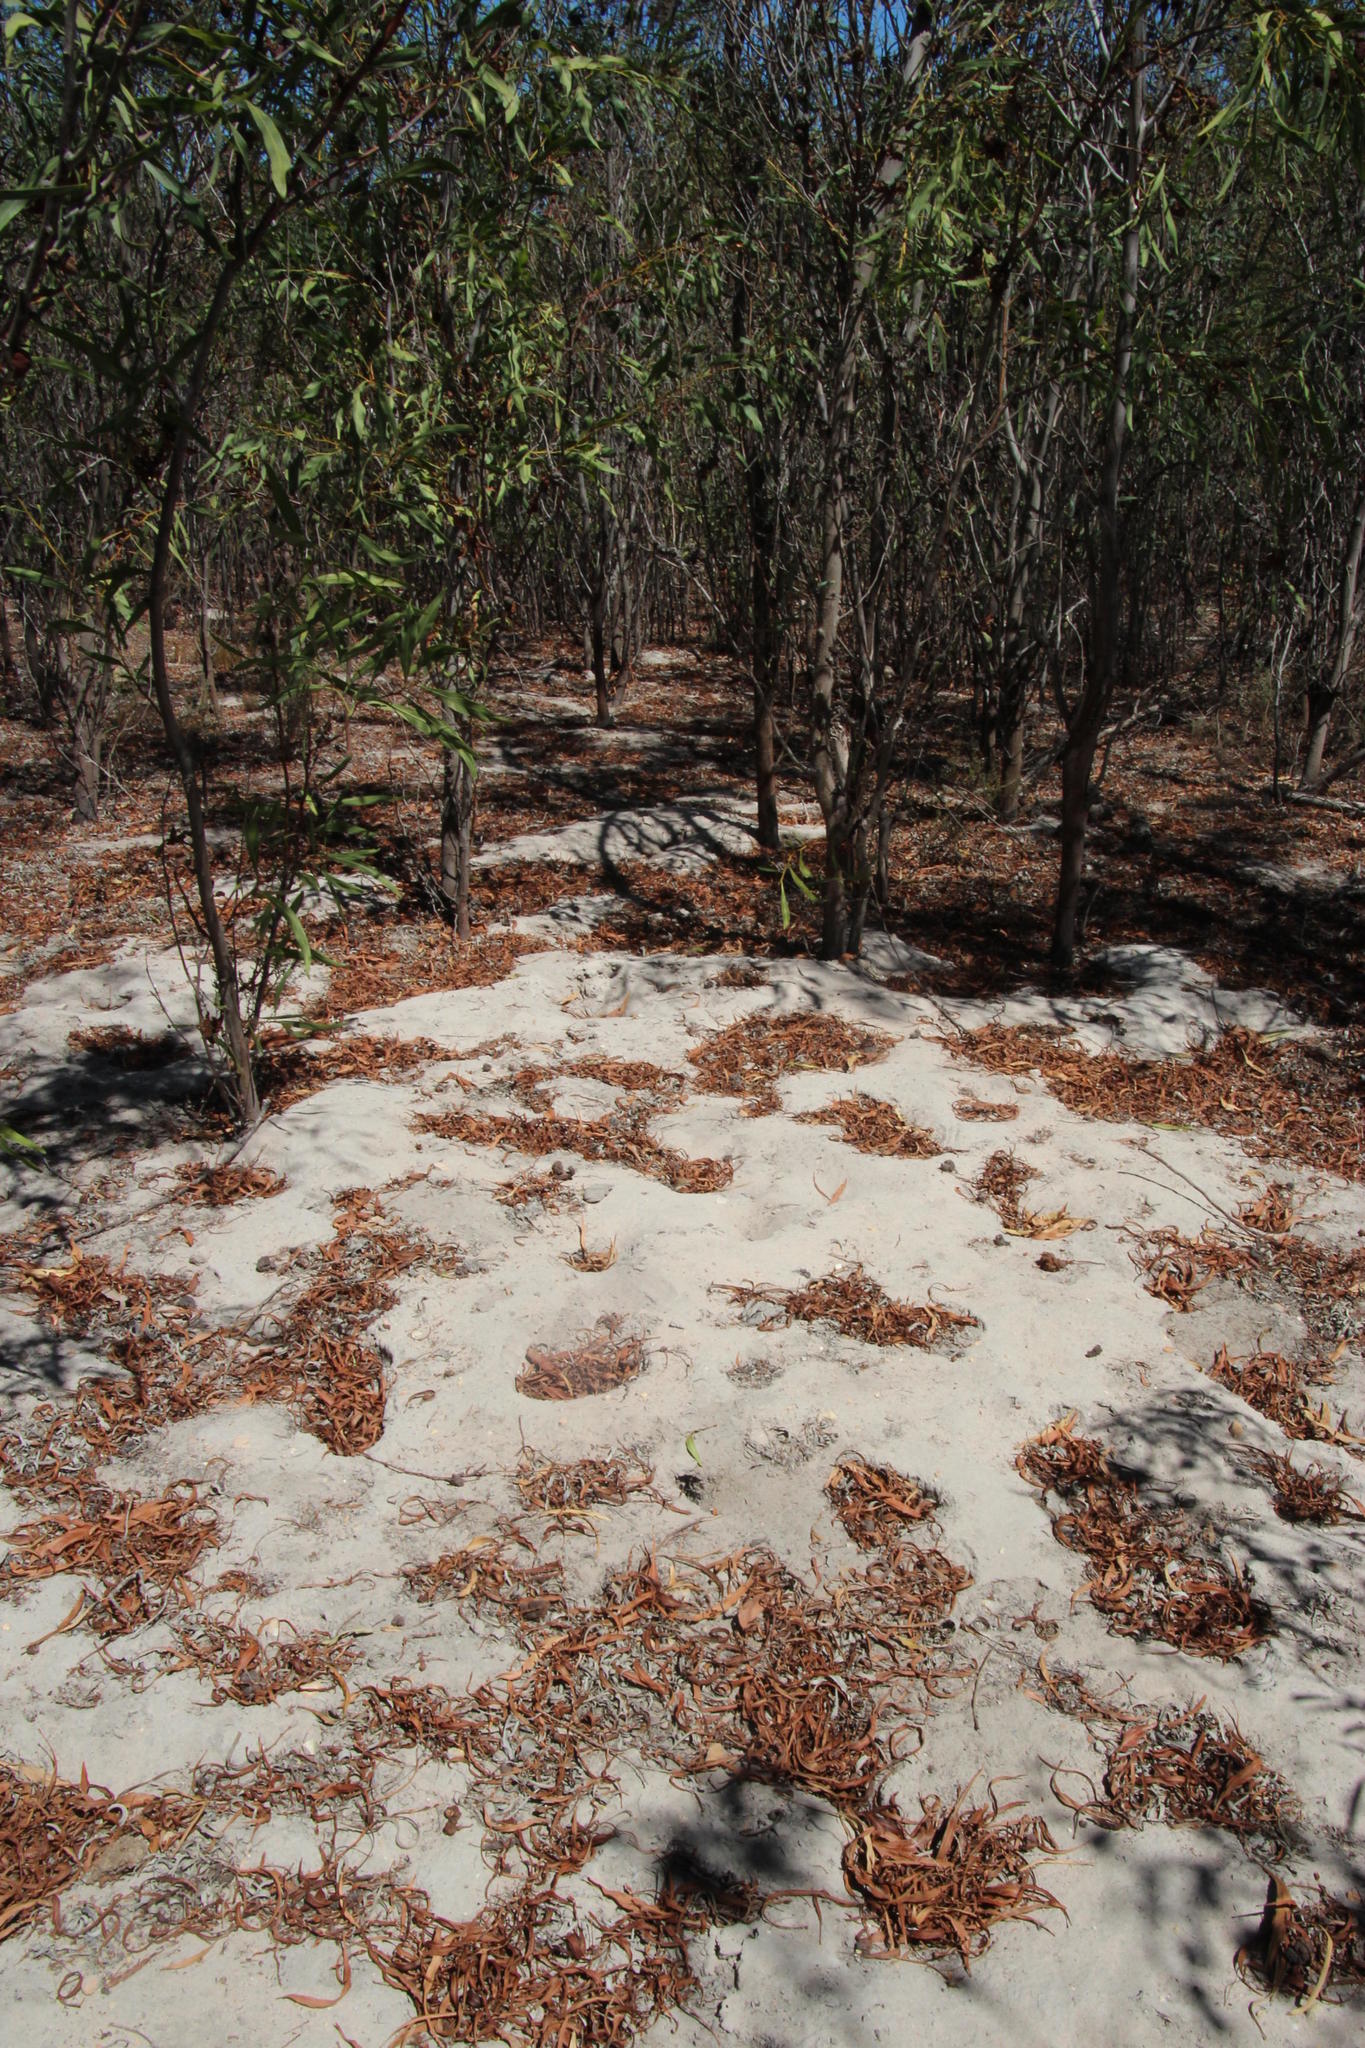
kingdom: Plantae
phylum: Tracheophyta
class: Magnoliopsida
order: Fabales
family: Fabaceae
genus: Acacia
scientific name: Acacia saligna
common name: Orange wattle
